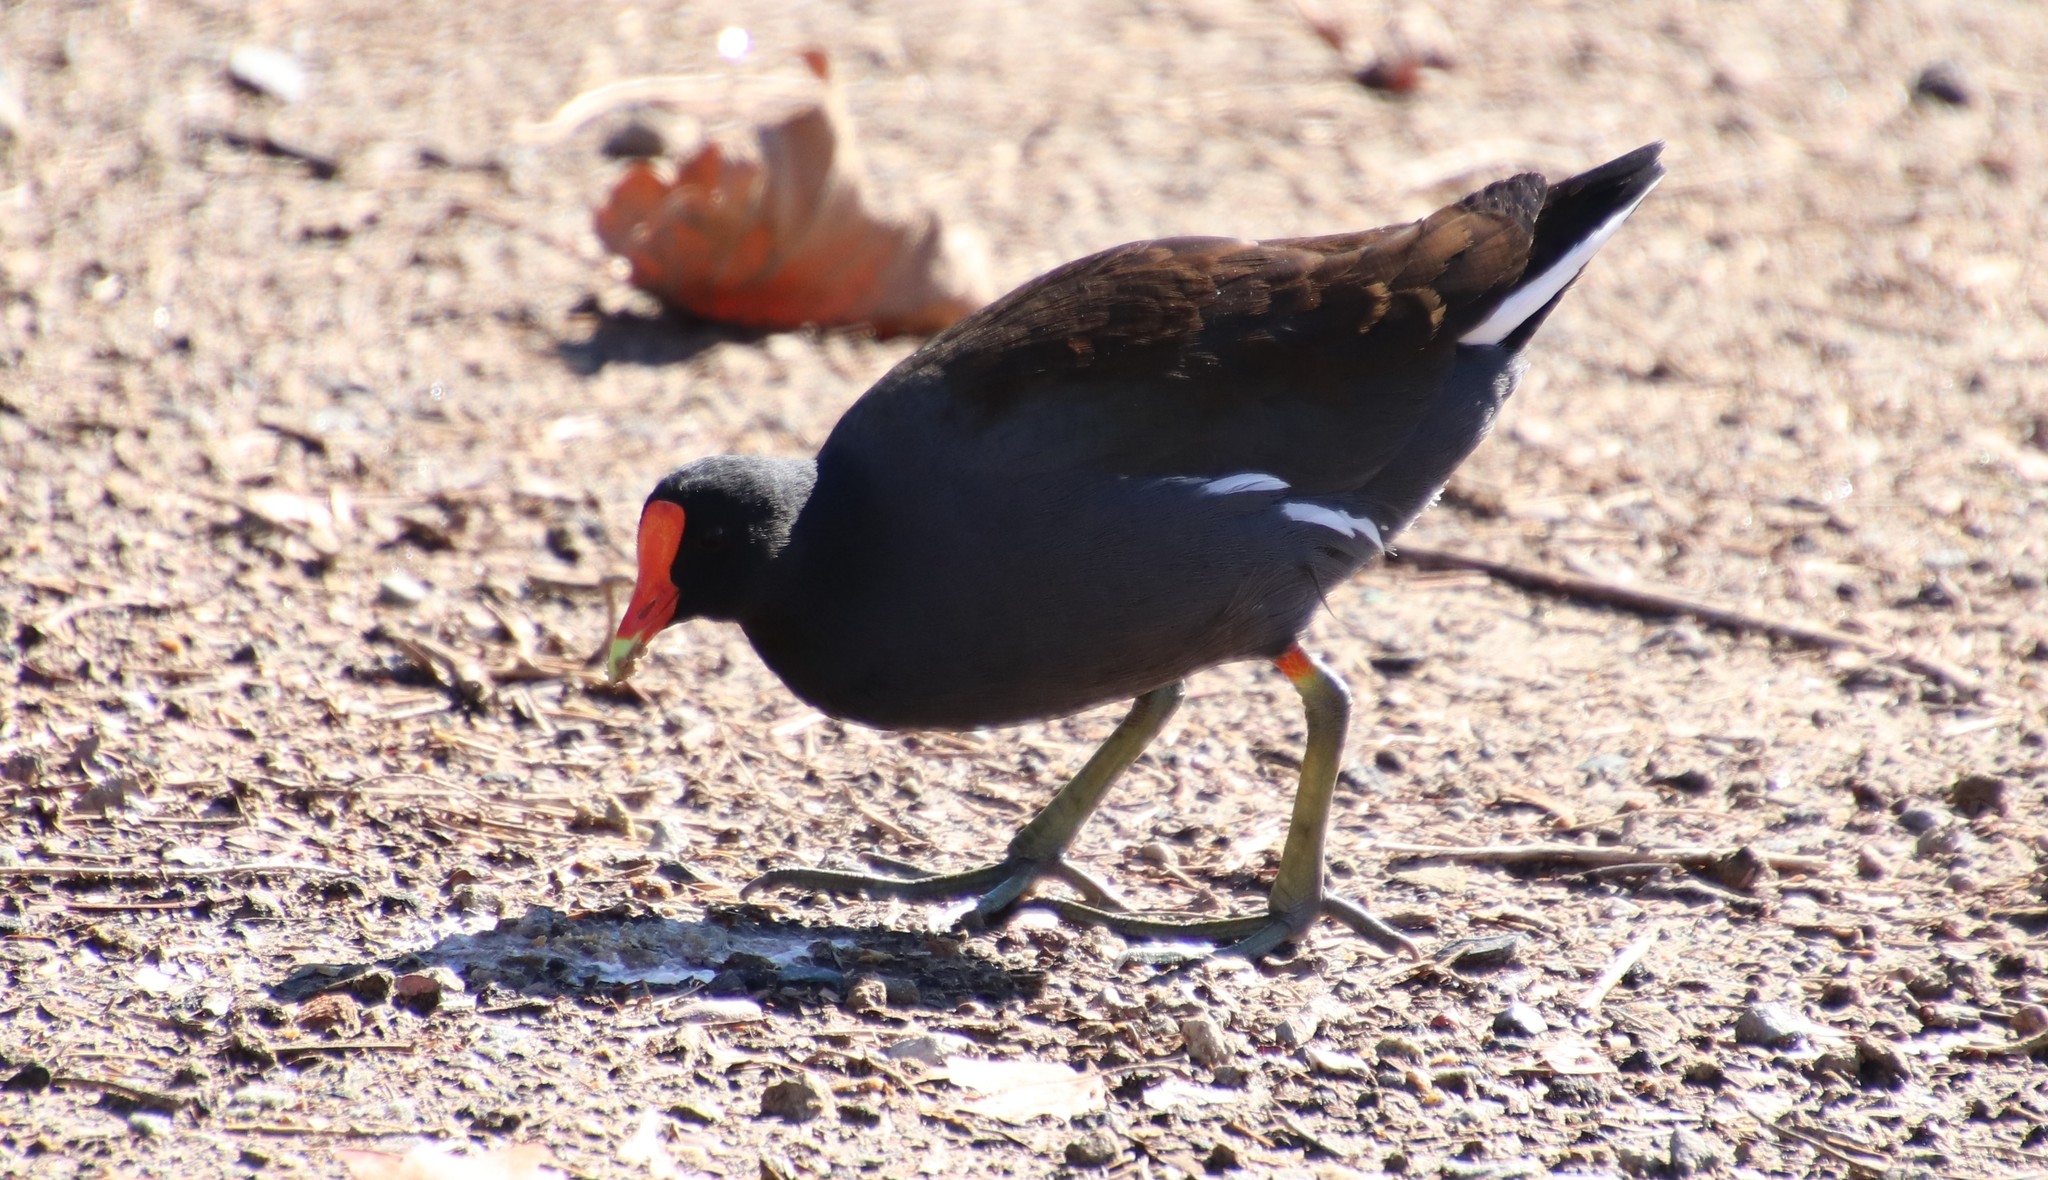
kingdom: Animalia
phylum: Chordata
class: Aves
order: Gruiformes
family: Rallidae
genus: Gallinula
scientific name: Gallinula chloropus
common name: Common moorhen
